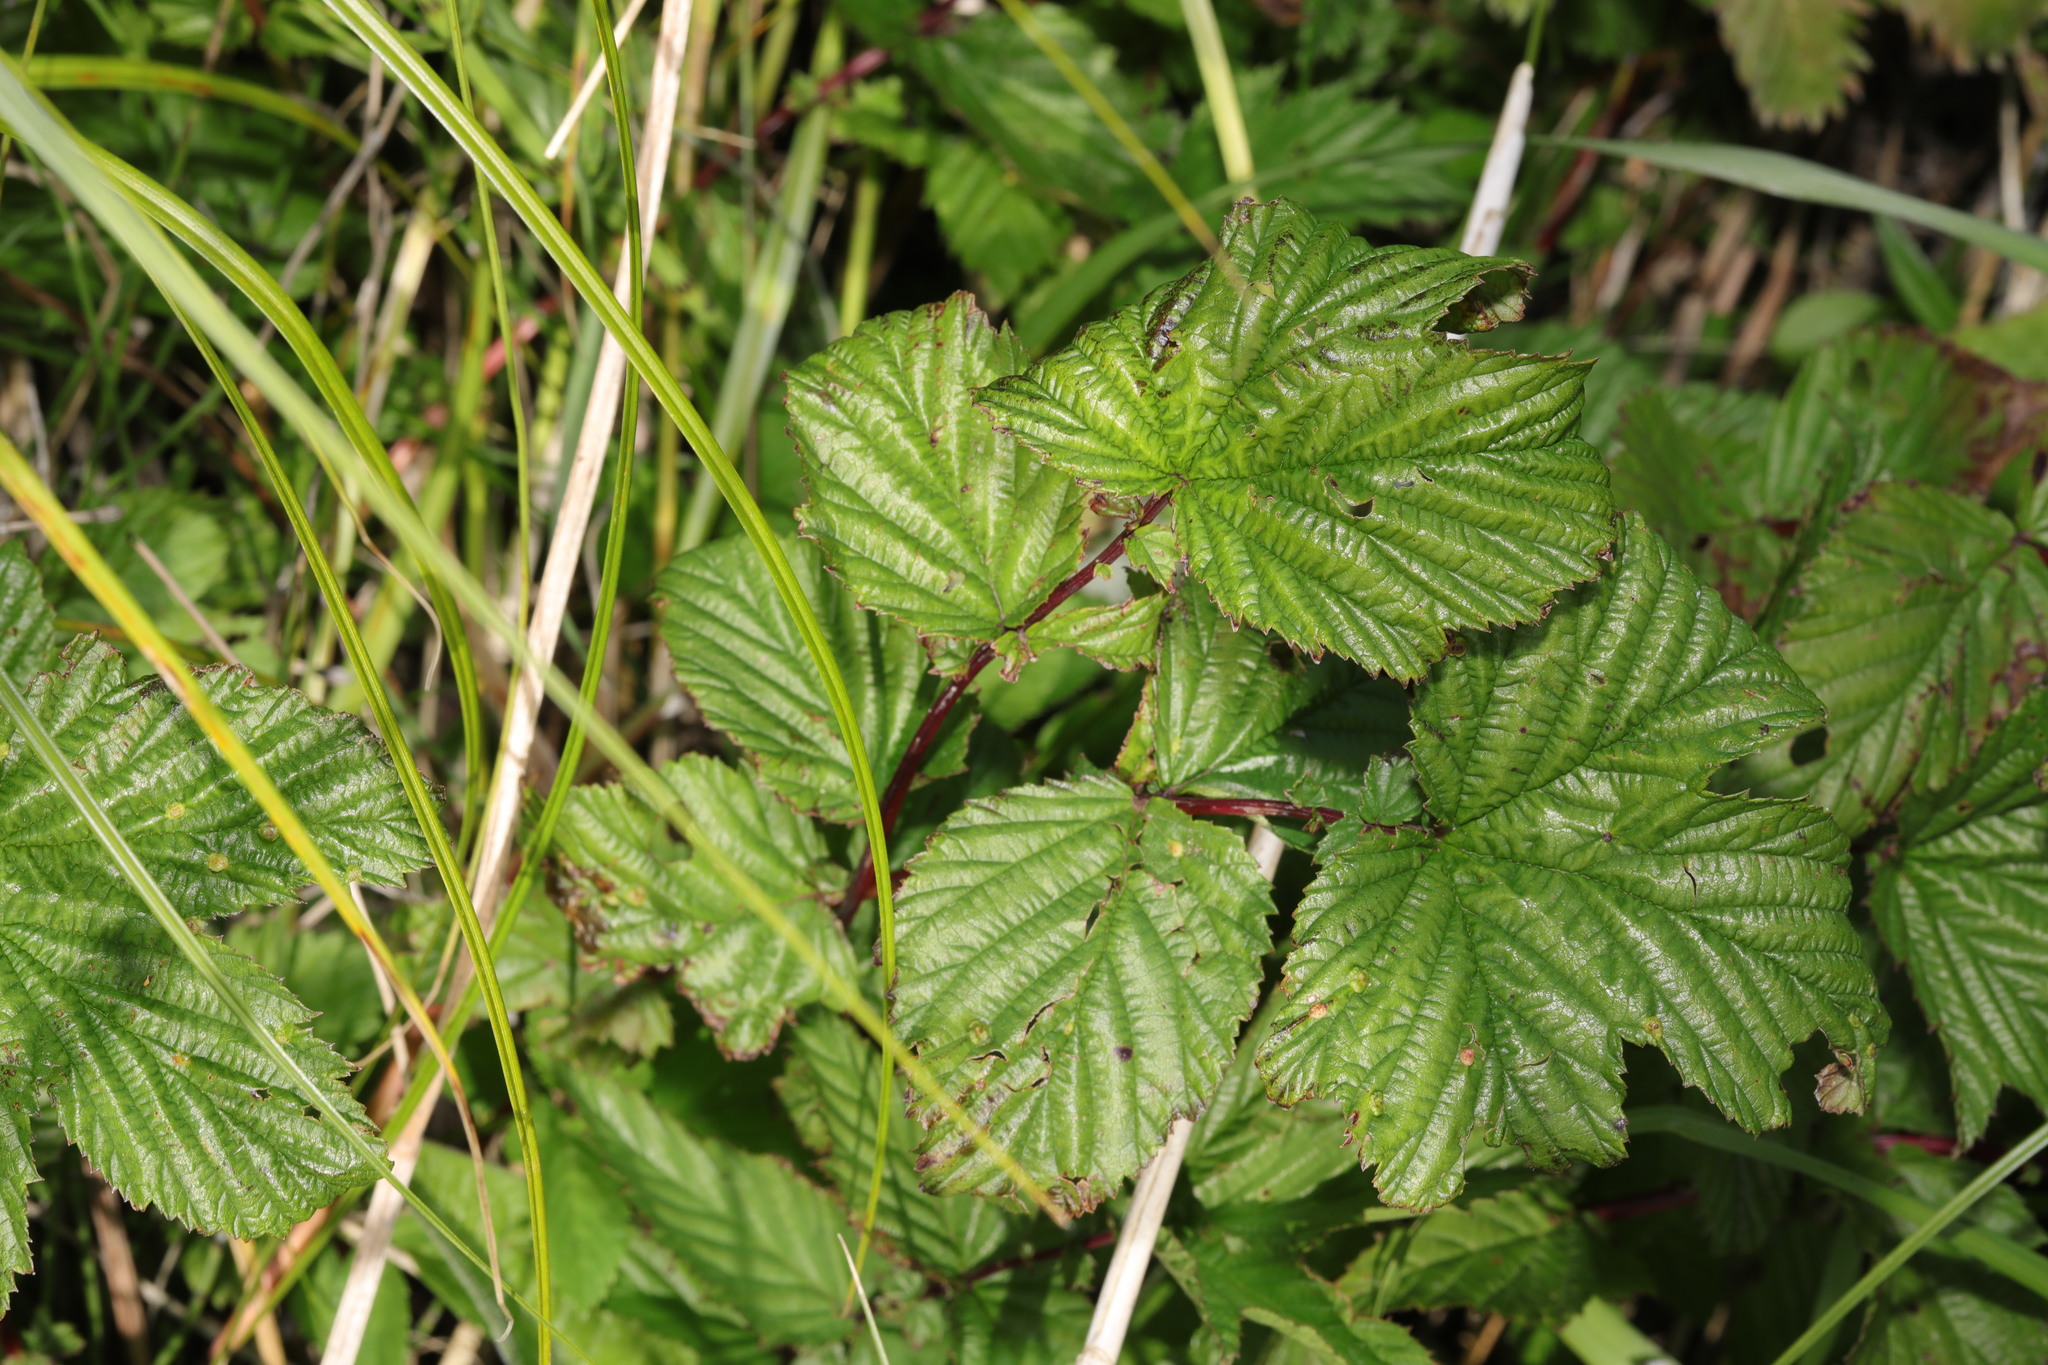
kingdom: Plantae
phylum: Tracheophyta
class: Magnoliopsida
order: Rosales
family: Rosaceae
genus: Filipendula
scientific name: Filipendula ulmaria
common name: Meadowsweet
